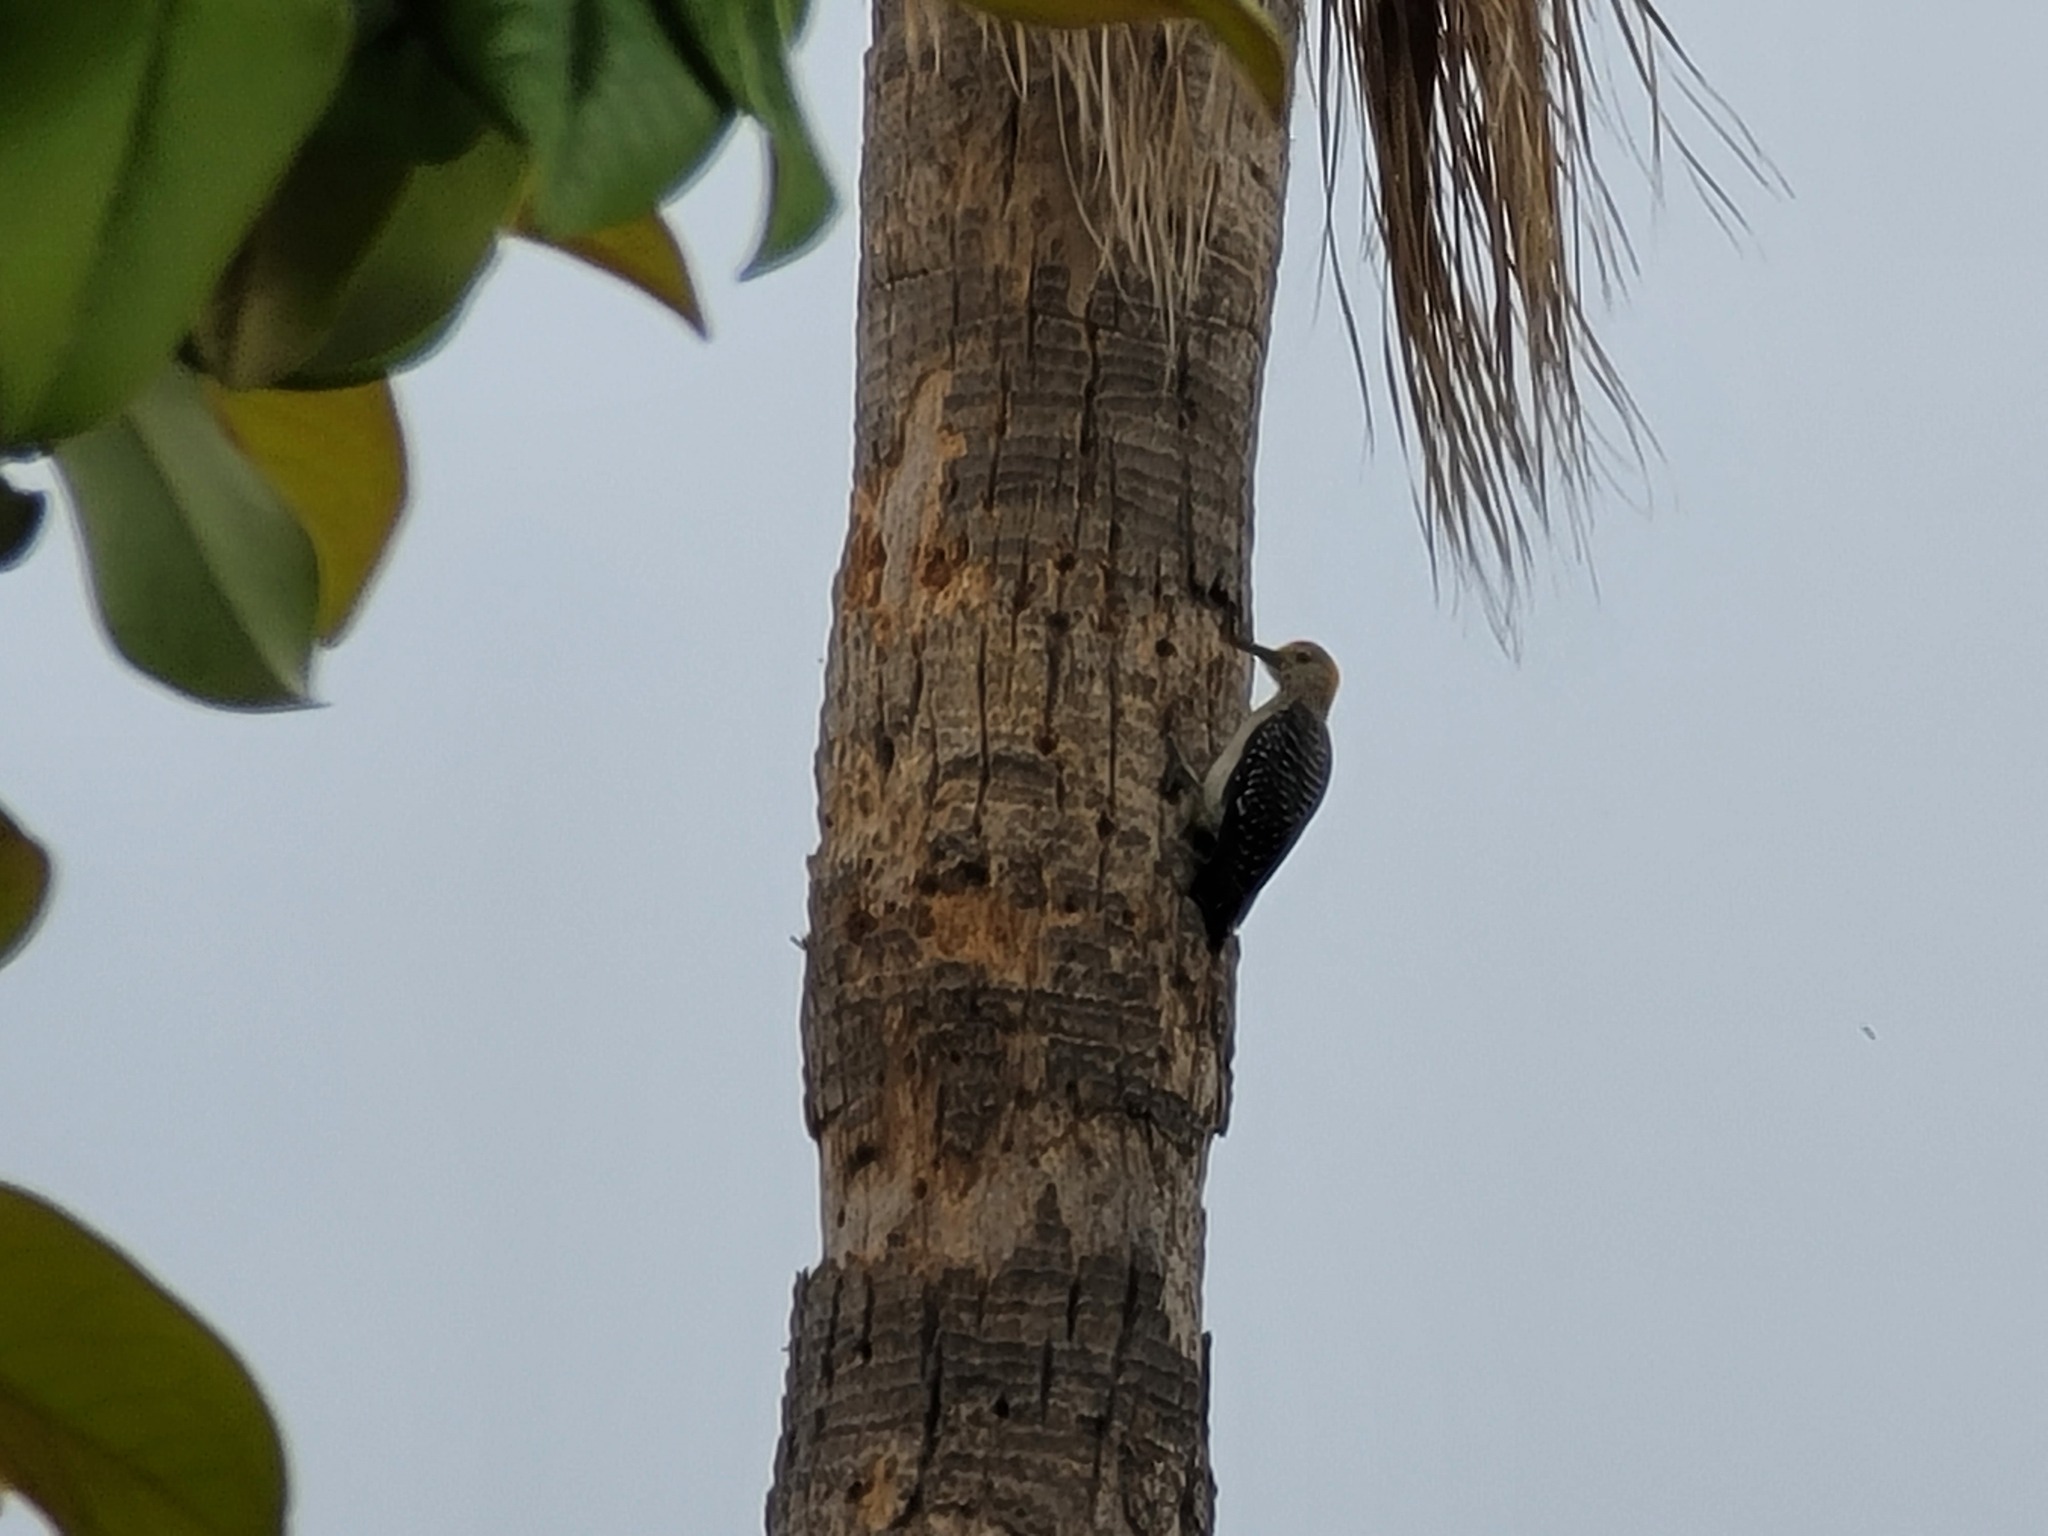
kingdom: Animalia
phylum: Chordata
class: Aves
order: Piciformes
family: Picidae
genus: Melanerpes
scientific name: Melanerpes aurifrons
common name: Golden-fronted woodpecker
